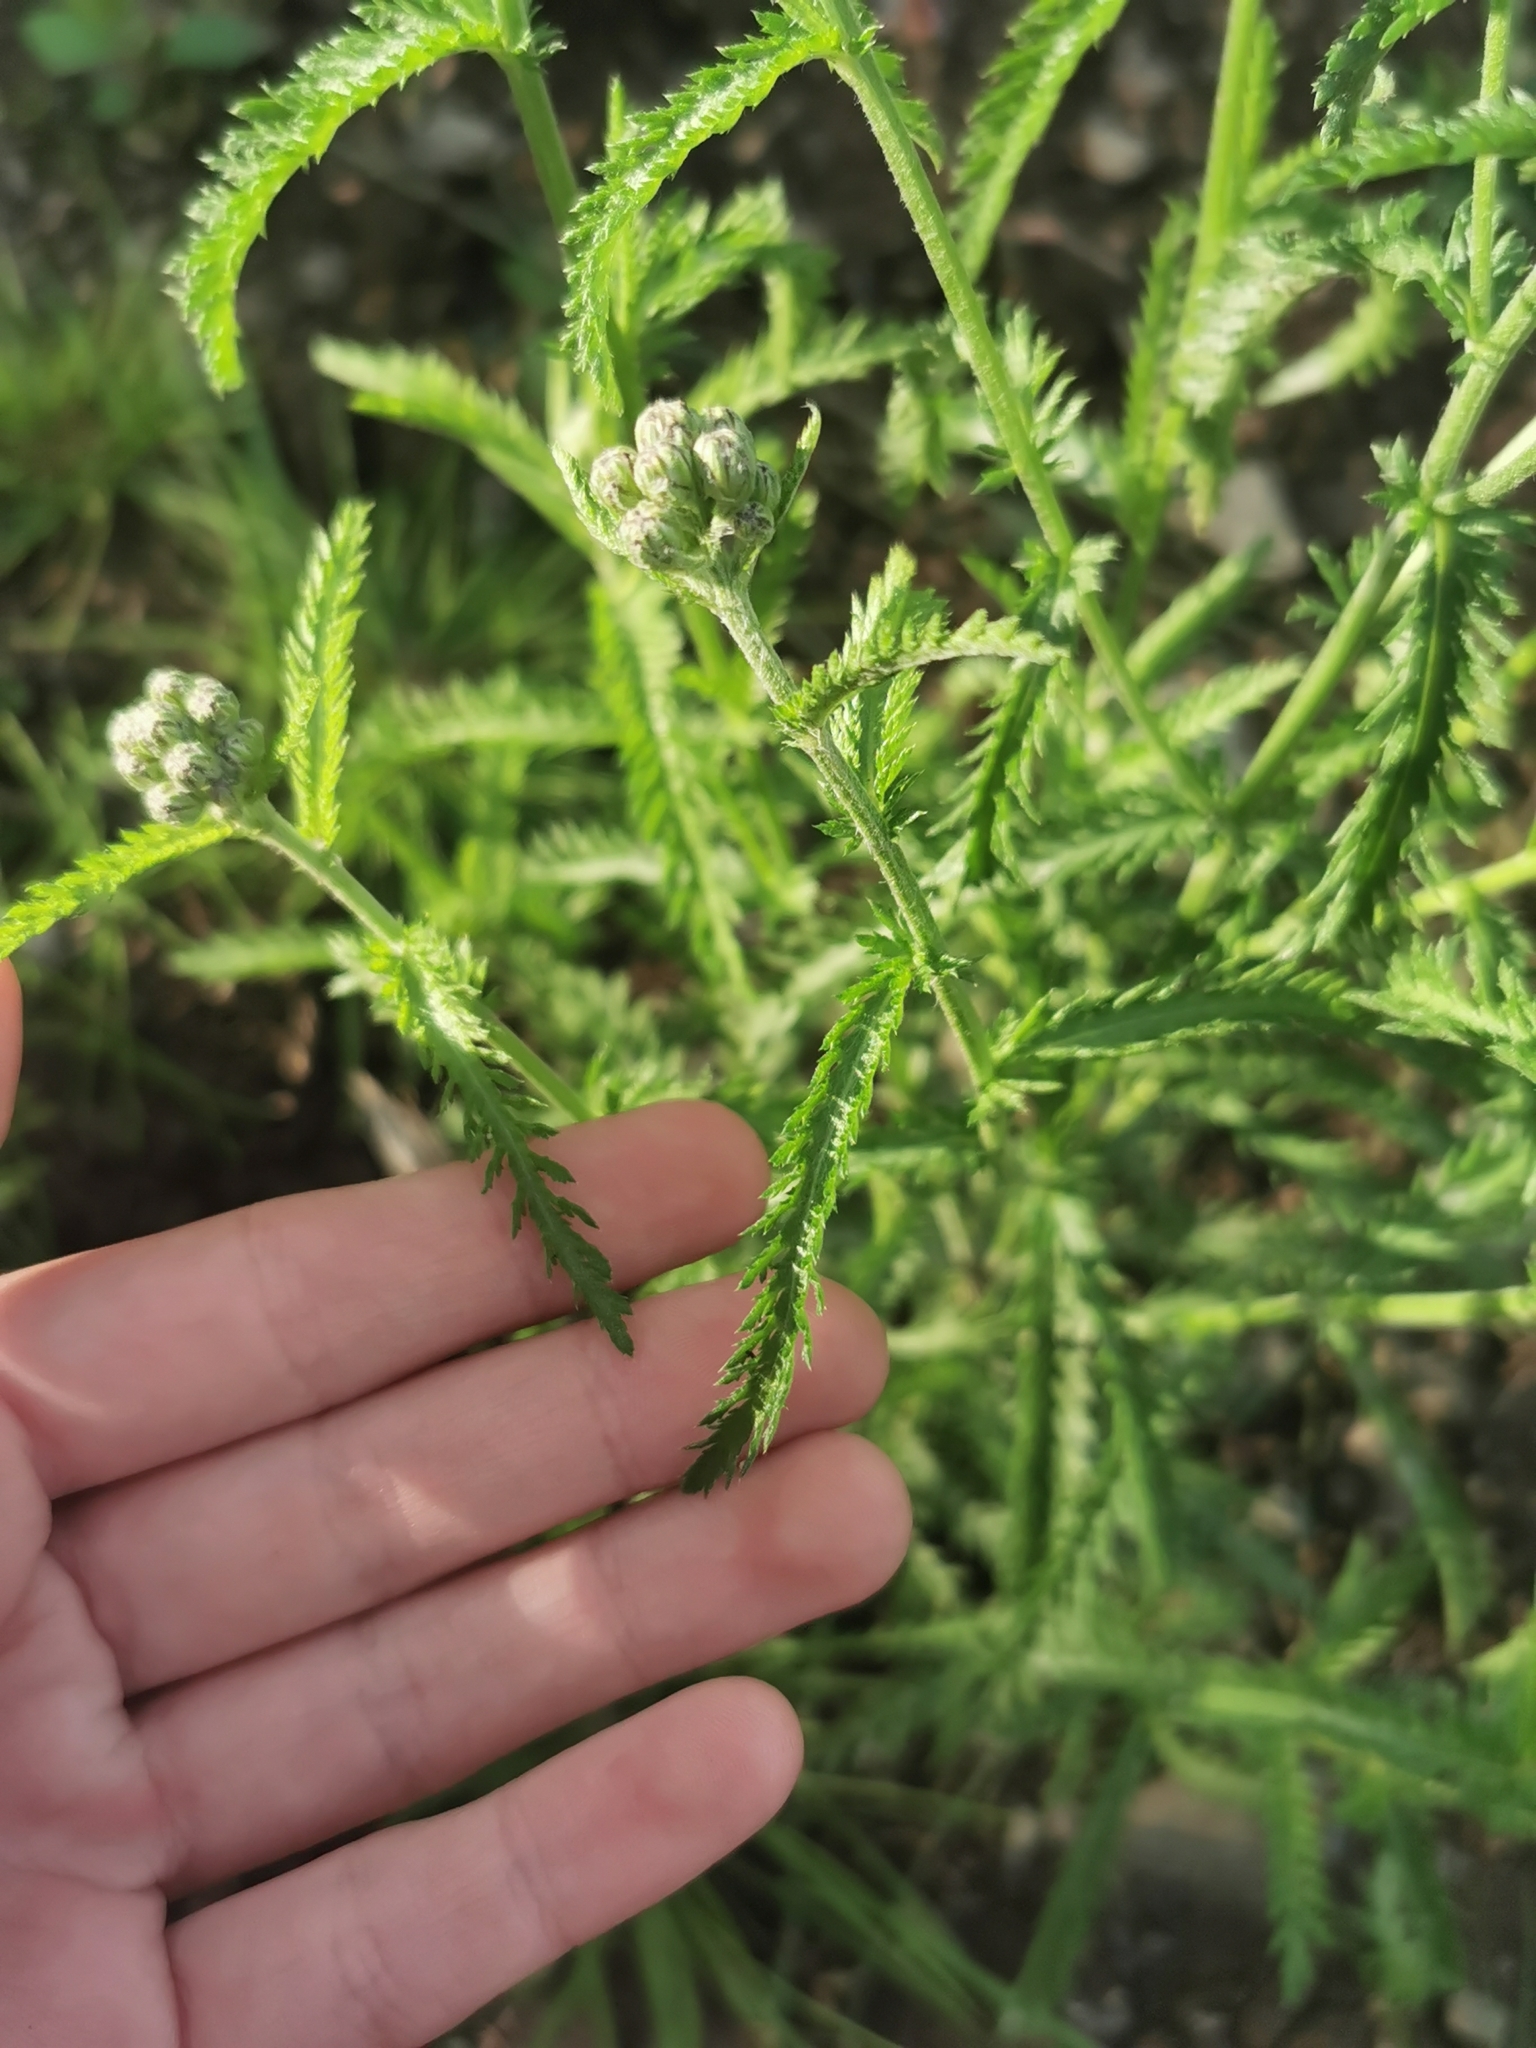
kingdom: Plantae
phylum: Tracheophyta
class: Magnoliopsida
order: Asterales
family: Asteraceae
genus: Achillea
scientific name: Achillea alpina
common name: Siberian yarrow
